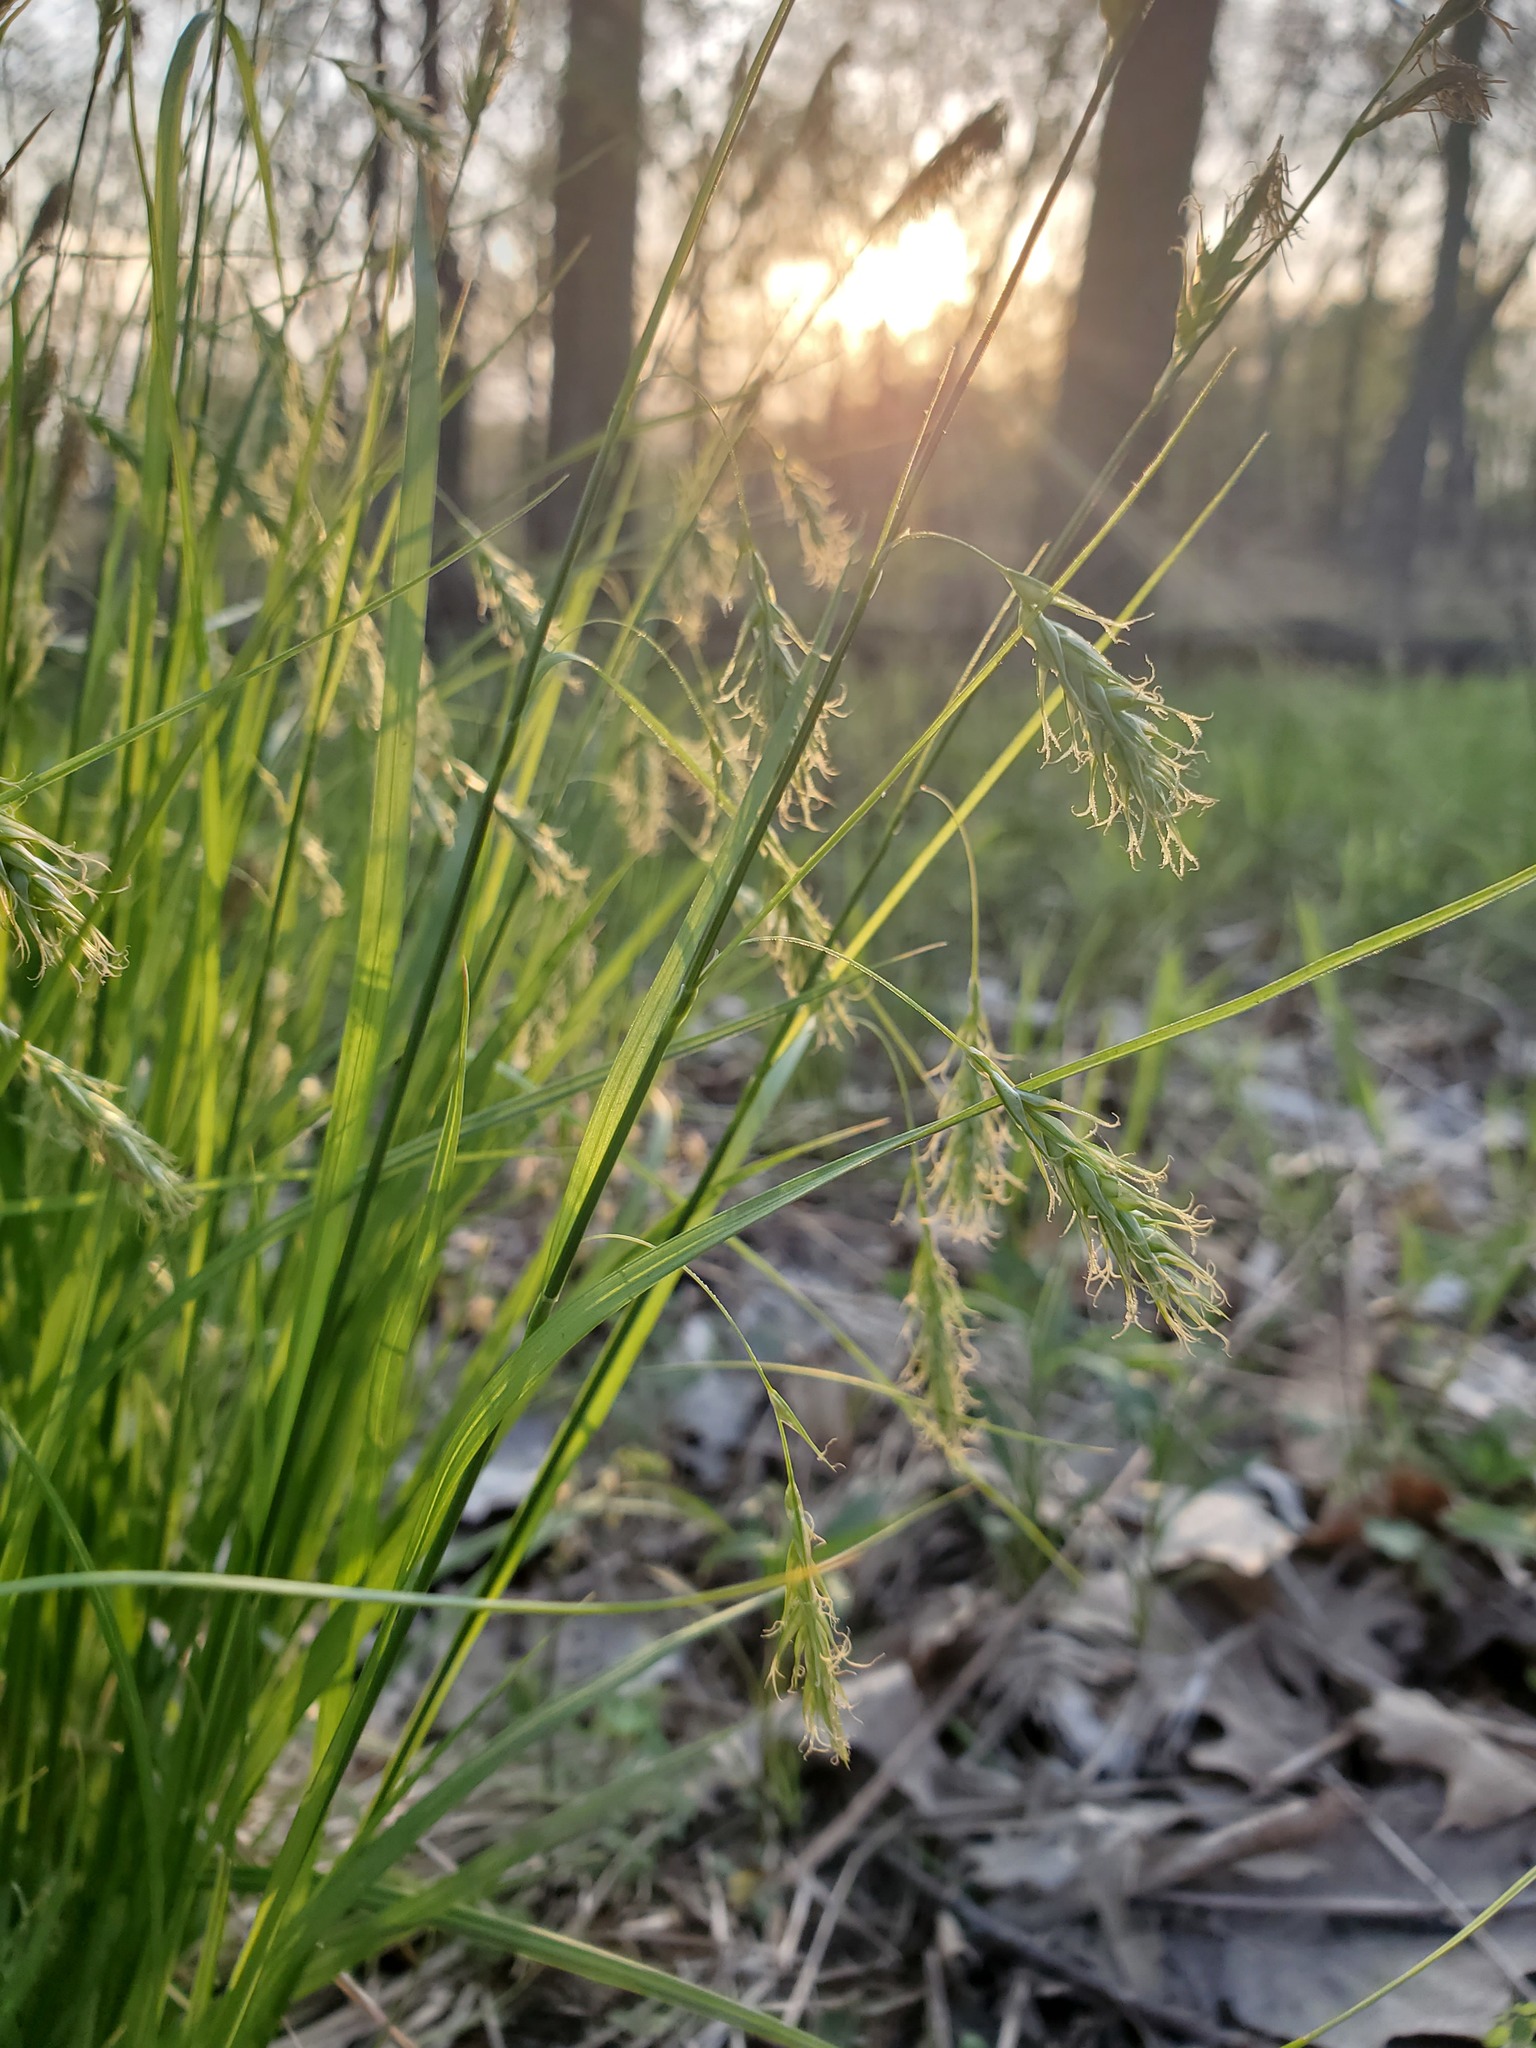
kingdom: Plantae
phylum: Tracheophyta
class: Liliopsida
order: Poales
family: Cyperaceae
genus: Carex
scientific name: Carex sprengelii
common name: Long-beaked sedge
